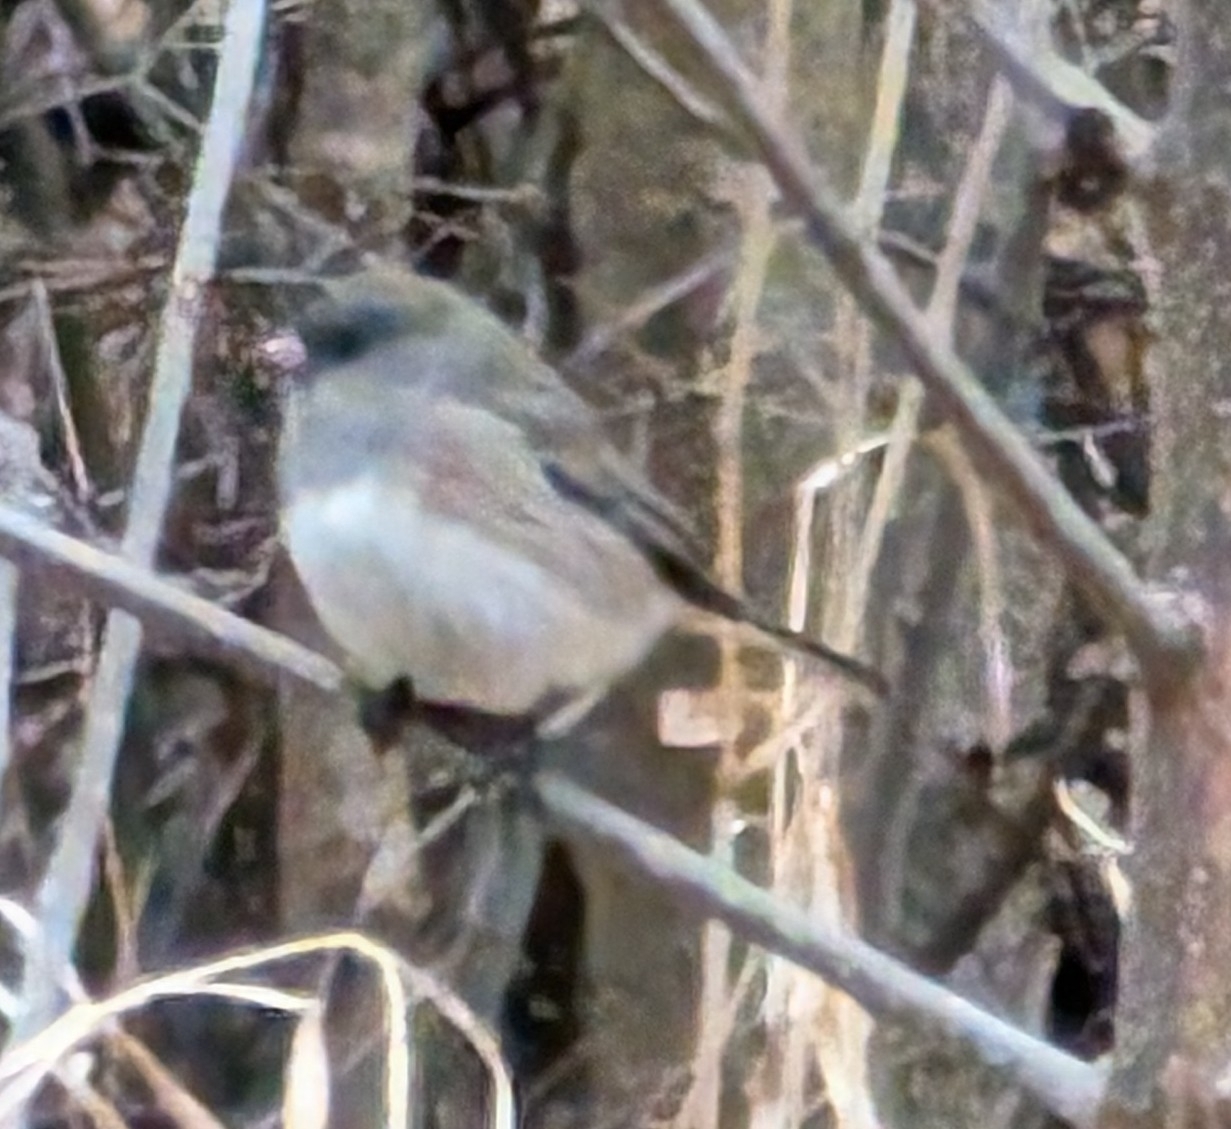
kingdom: Animalia
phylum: Chordata
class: Aves
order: Passeriformes
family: Passerellidae
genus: Junco
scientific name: Junco hyemalis
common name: Dark-eyed junco
